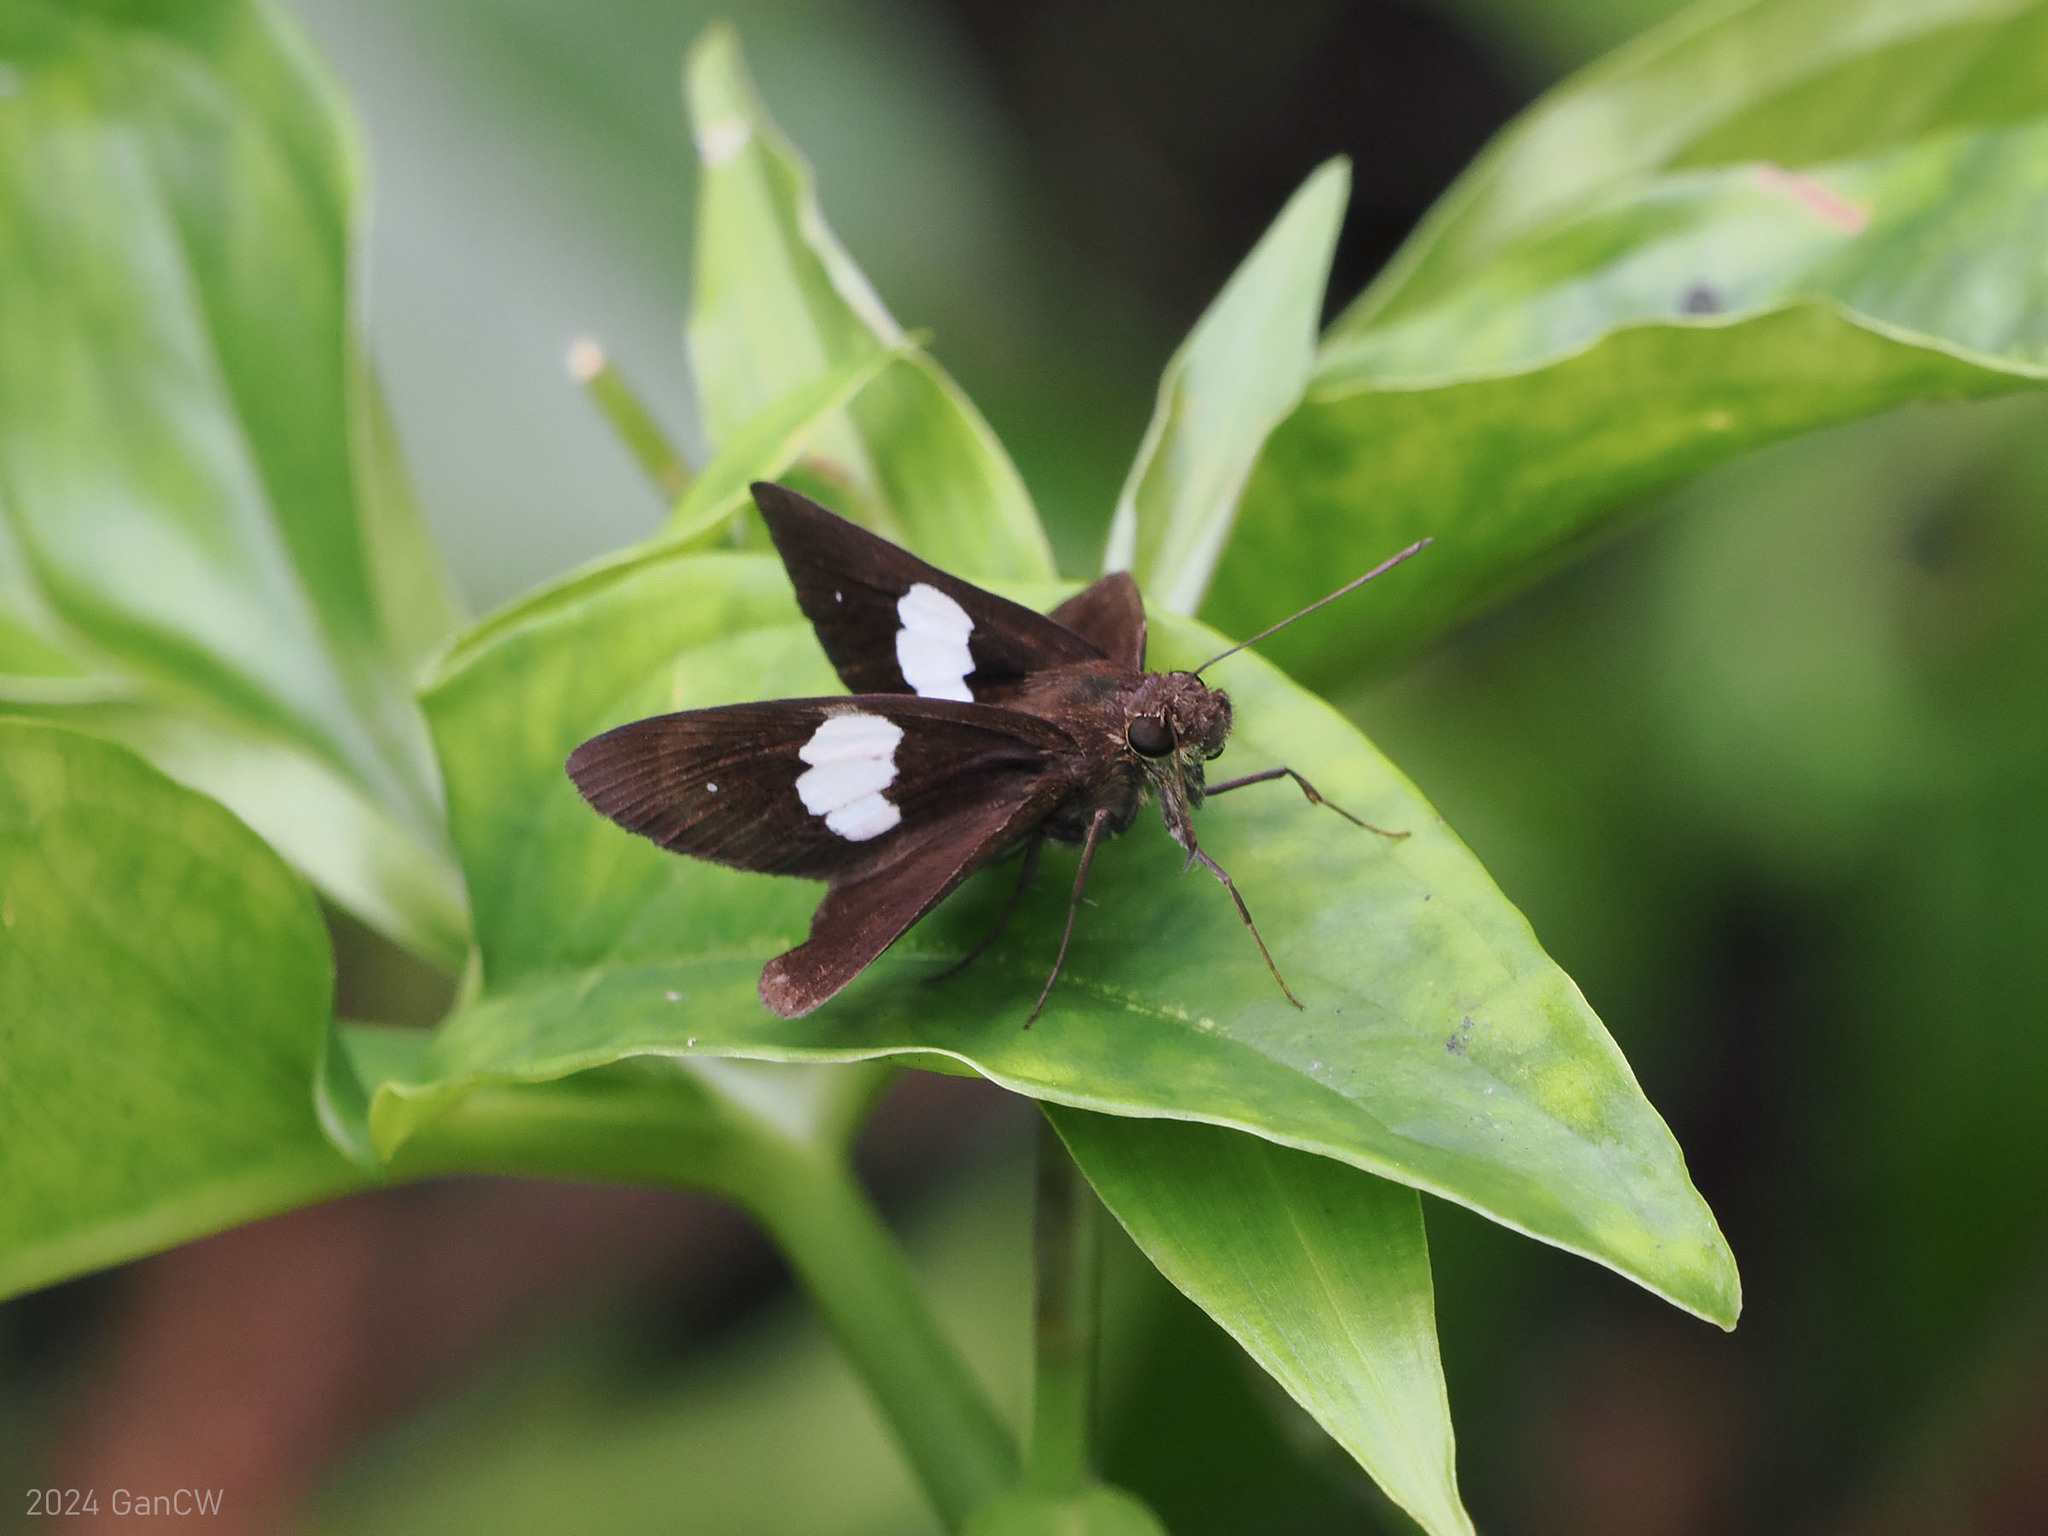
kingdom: Animalia
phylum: Arthropoda
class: Insecta
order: Lepidoptera
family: Hesperiidae
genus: Notocrypta
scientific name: Notocrypta paralysos
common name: Common banded demon
